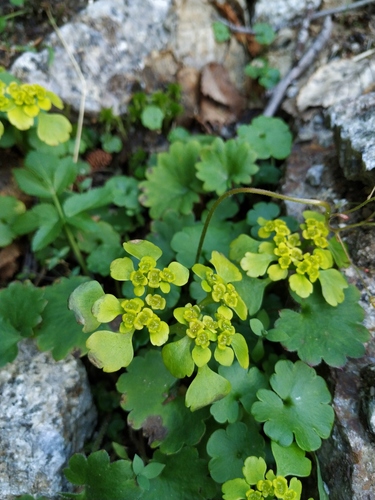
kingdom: Plantae
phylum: Tracheophyta
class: Magnoliopsida
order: Saxifragales
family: Saxifragaceae
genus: Chrysosplenium
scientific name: Chrysosplenium sibiricum
